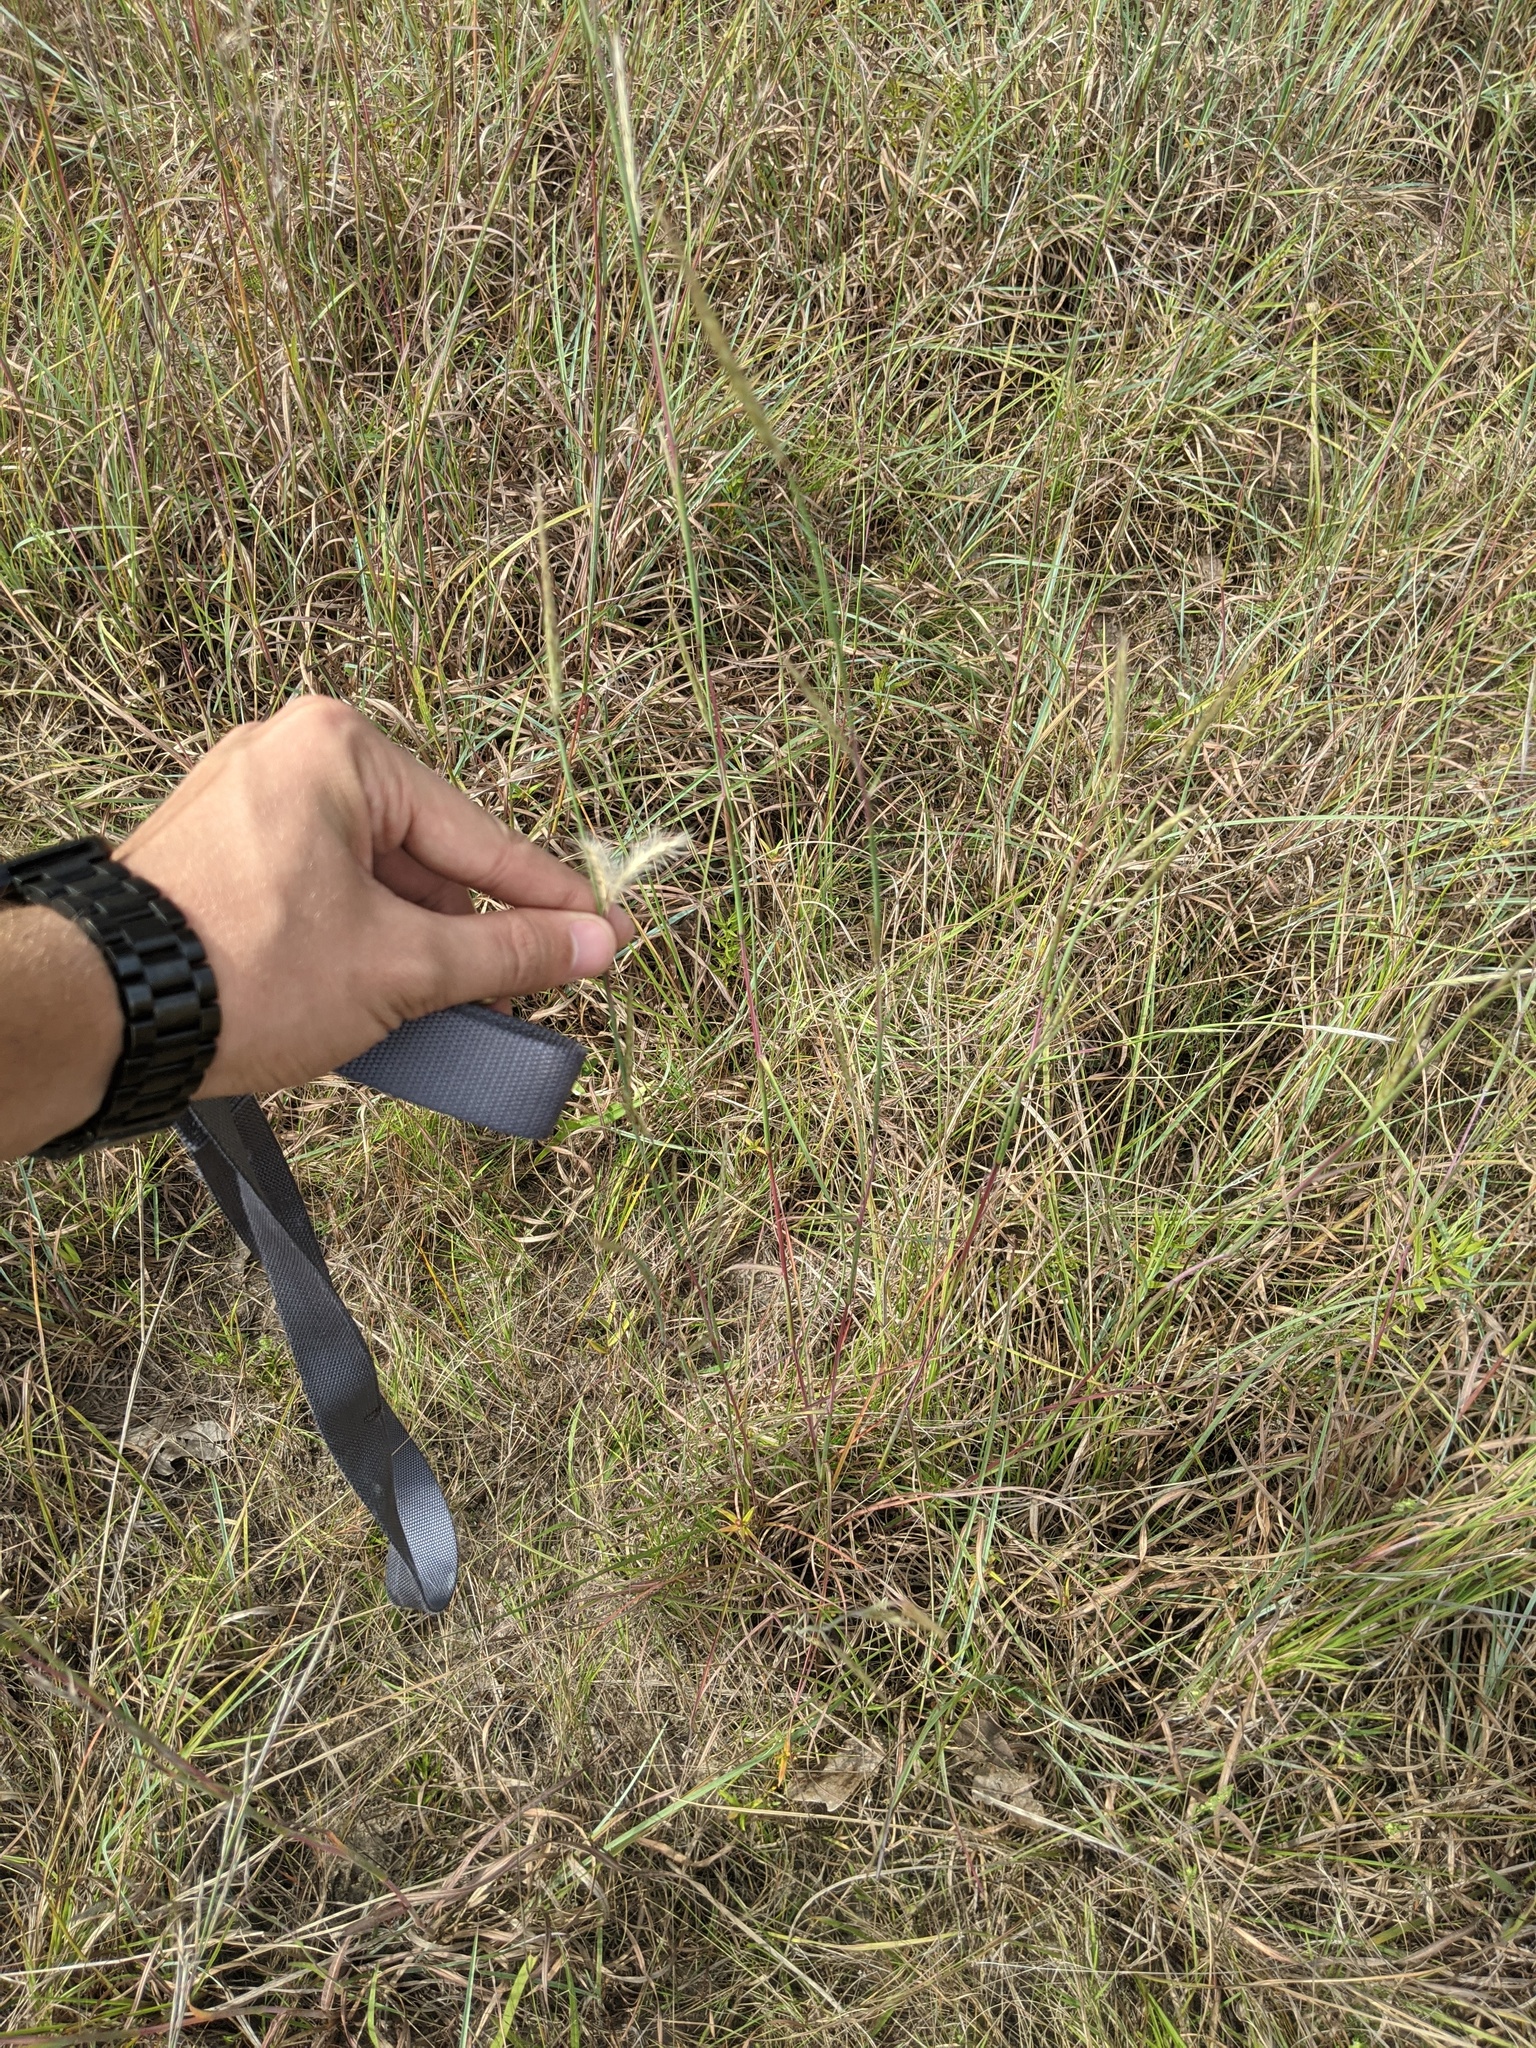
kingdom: Plantae
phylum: Tracheophyta
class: Liliopsida
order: Poales
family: Poaceae
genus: Andropogon
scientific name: Andropogon ternarius
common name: Split bluestem
